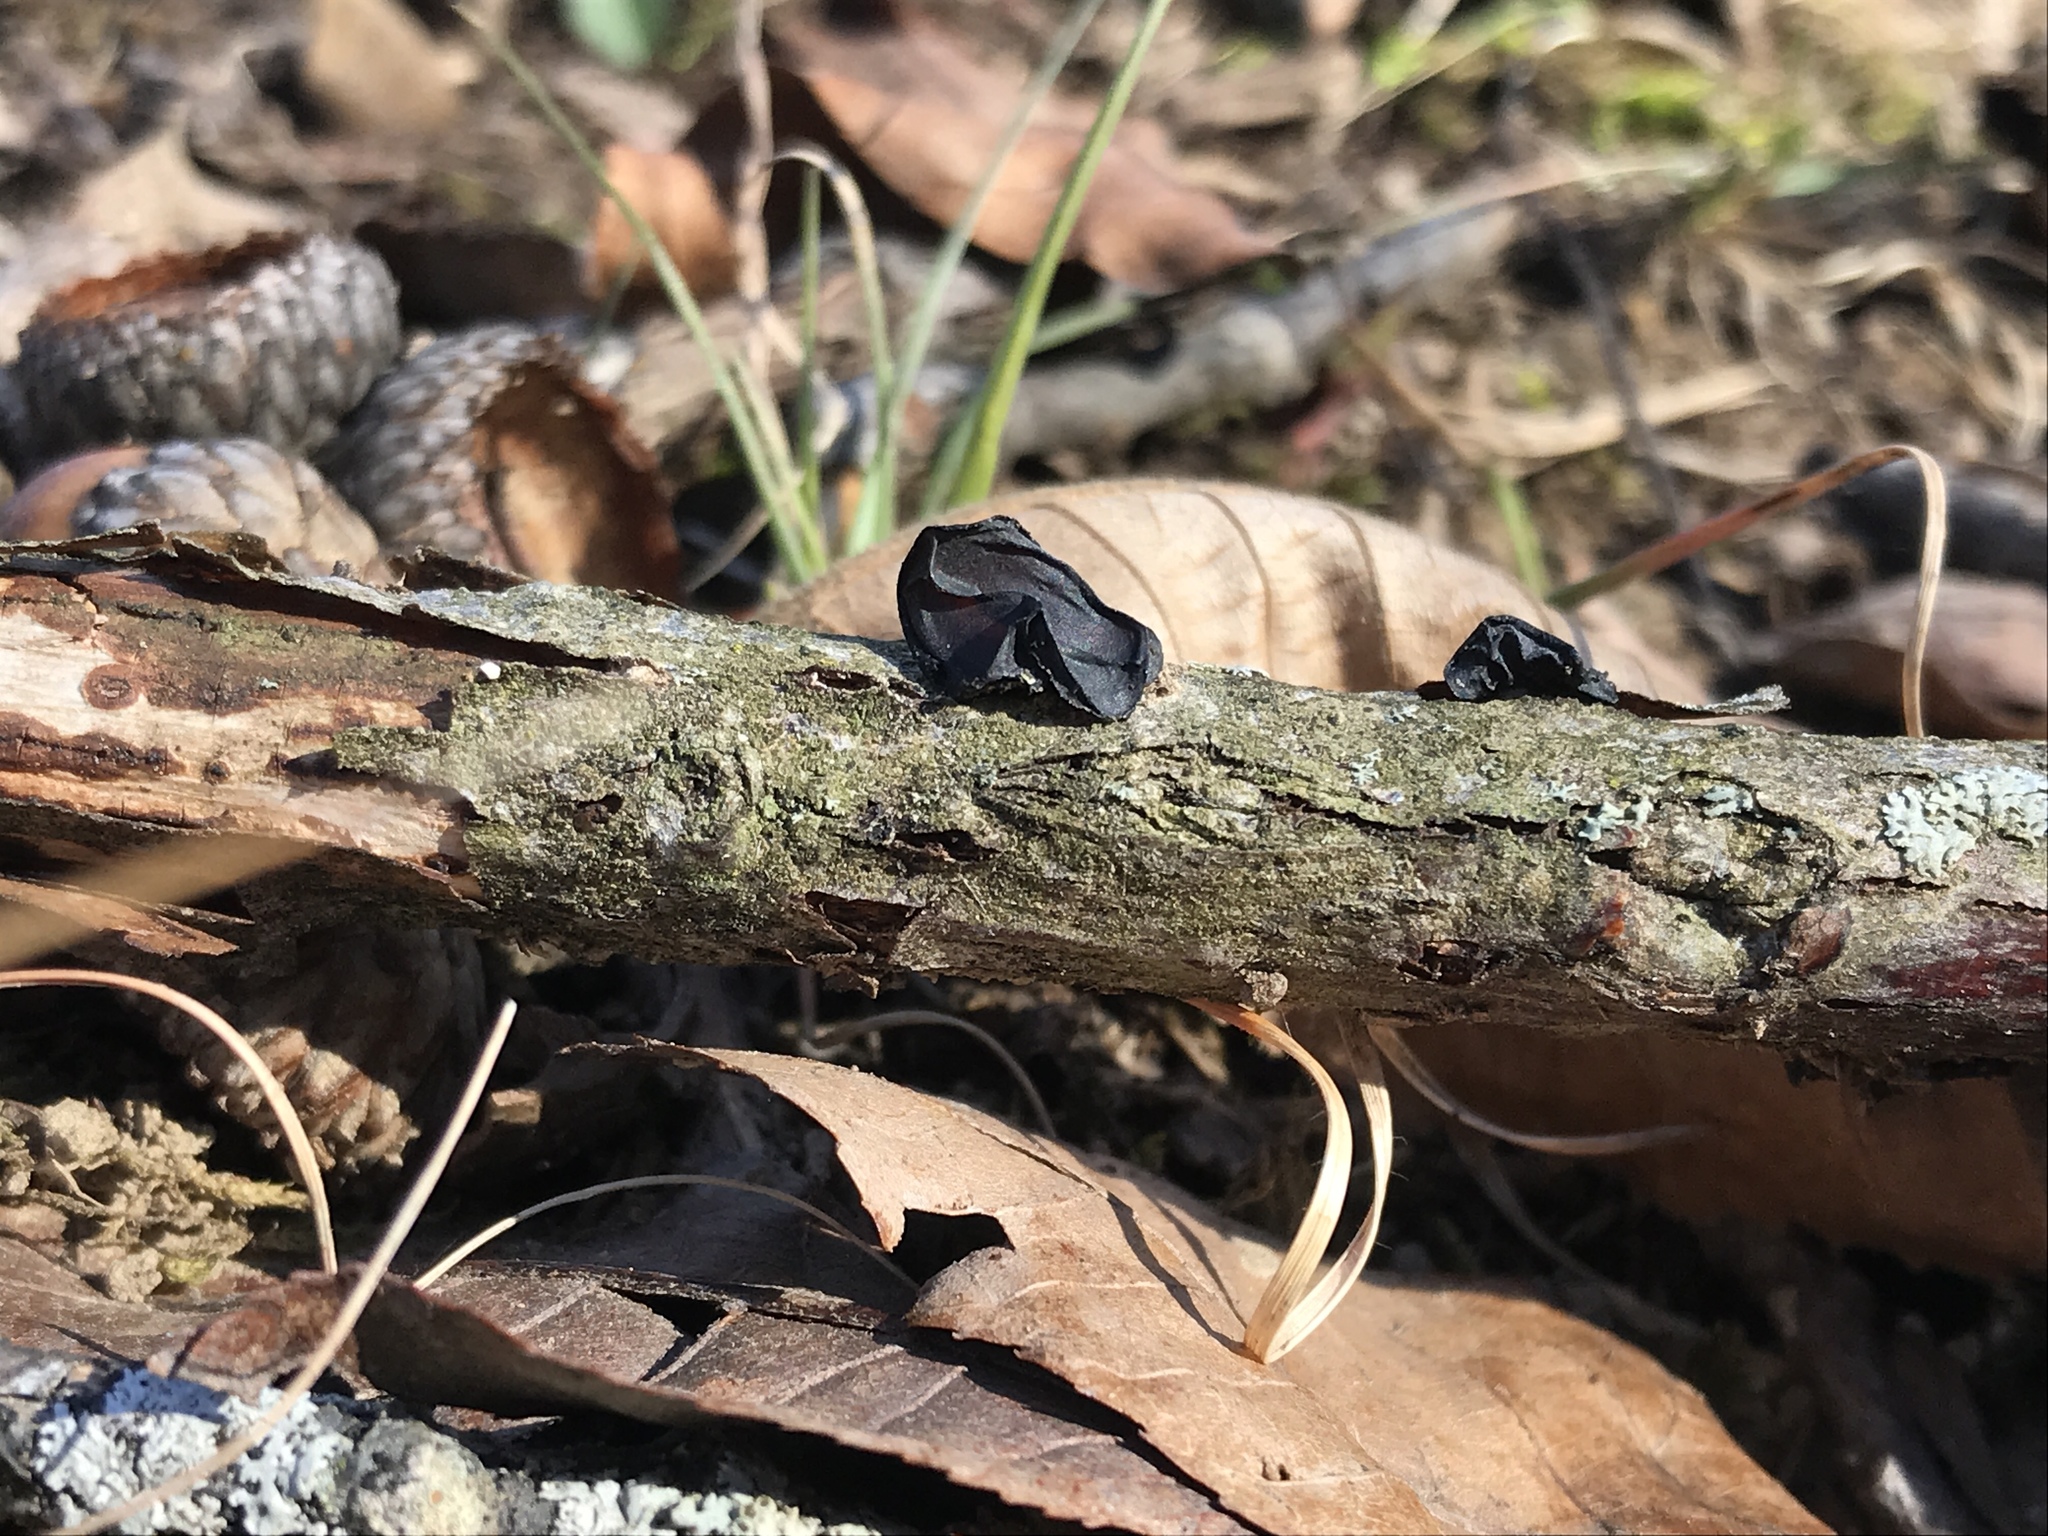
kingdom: Fungi
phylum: Basidiomycota
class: Agaricomycetes
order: Auriculariales
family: Auriculariaceae
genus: Exidia
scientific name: Exidia
